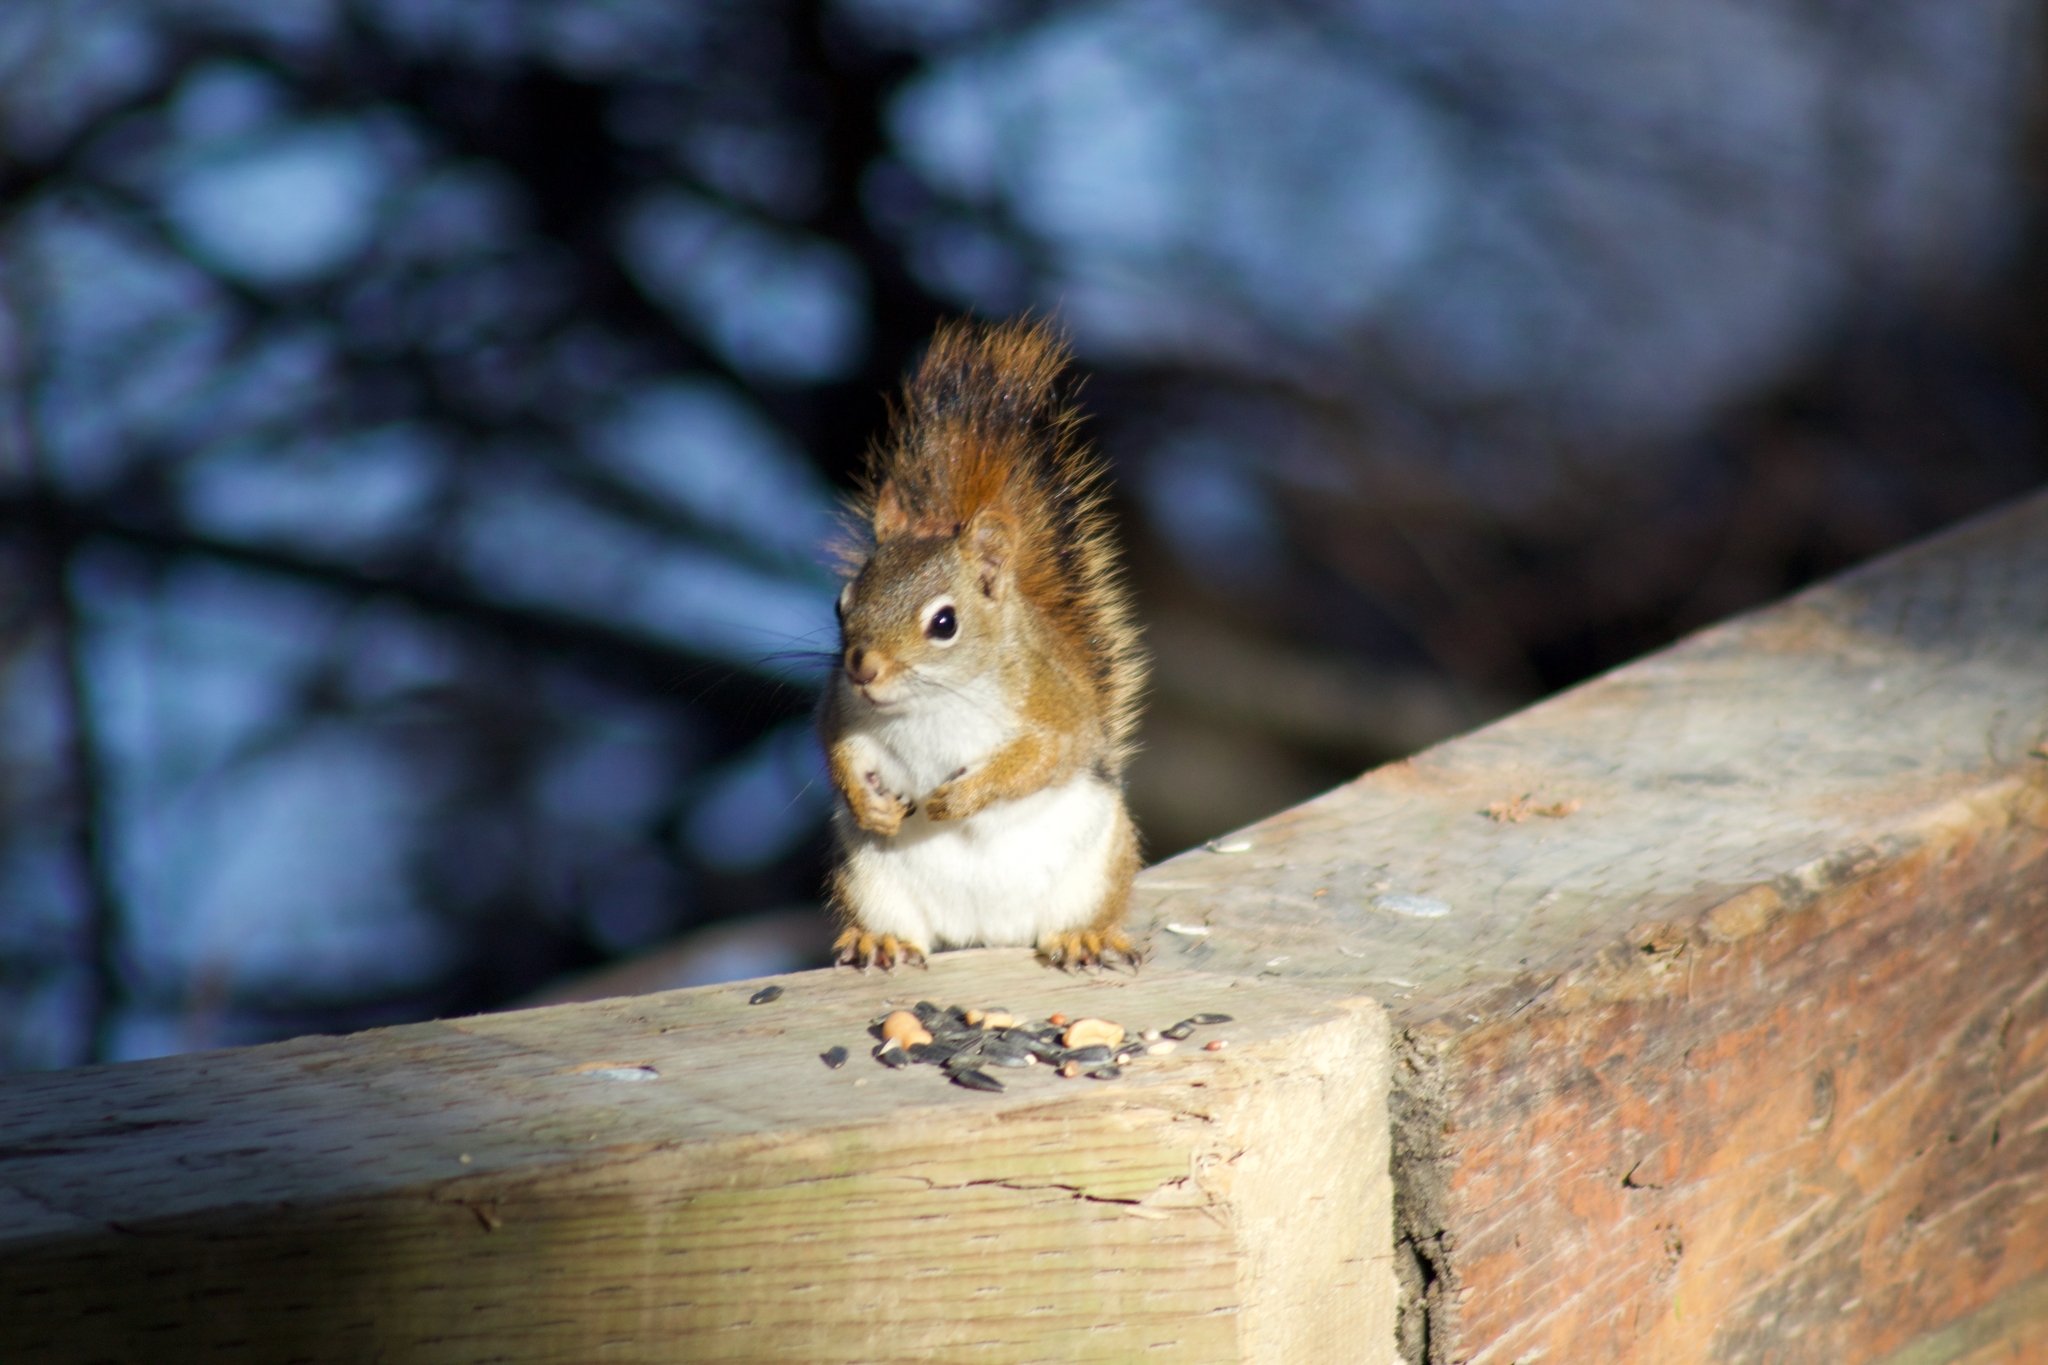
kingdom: Animalia
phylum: Chordata
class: Mammalia
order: Rodentia
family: Sciuridae
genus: Tamiasciurus
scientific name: Tamiasciurus hudsonicus
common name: Red squirrel
